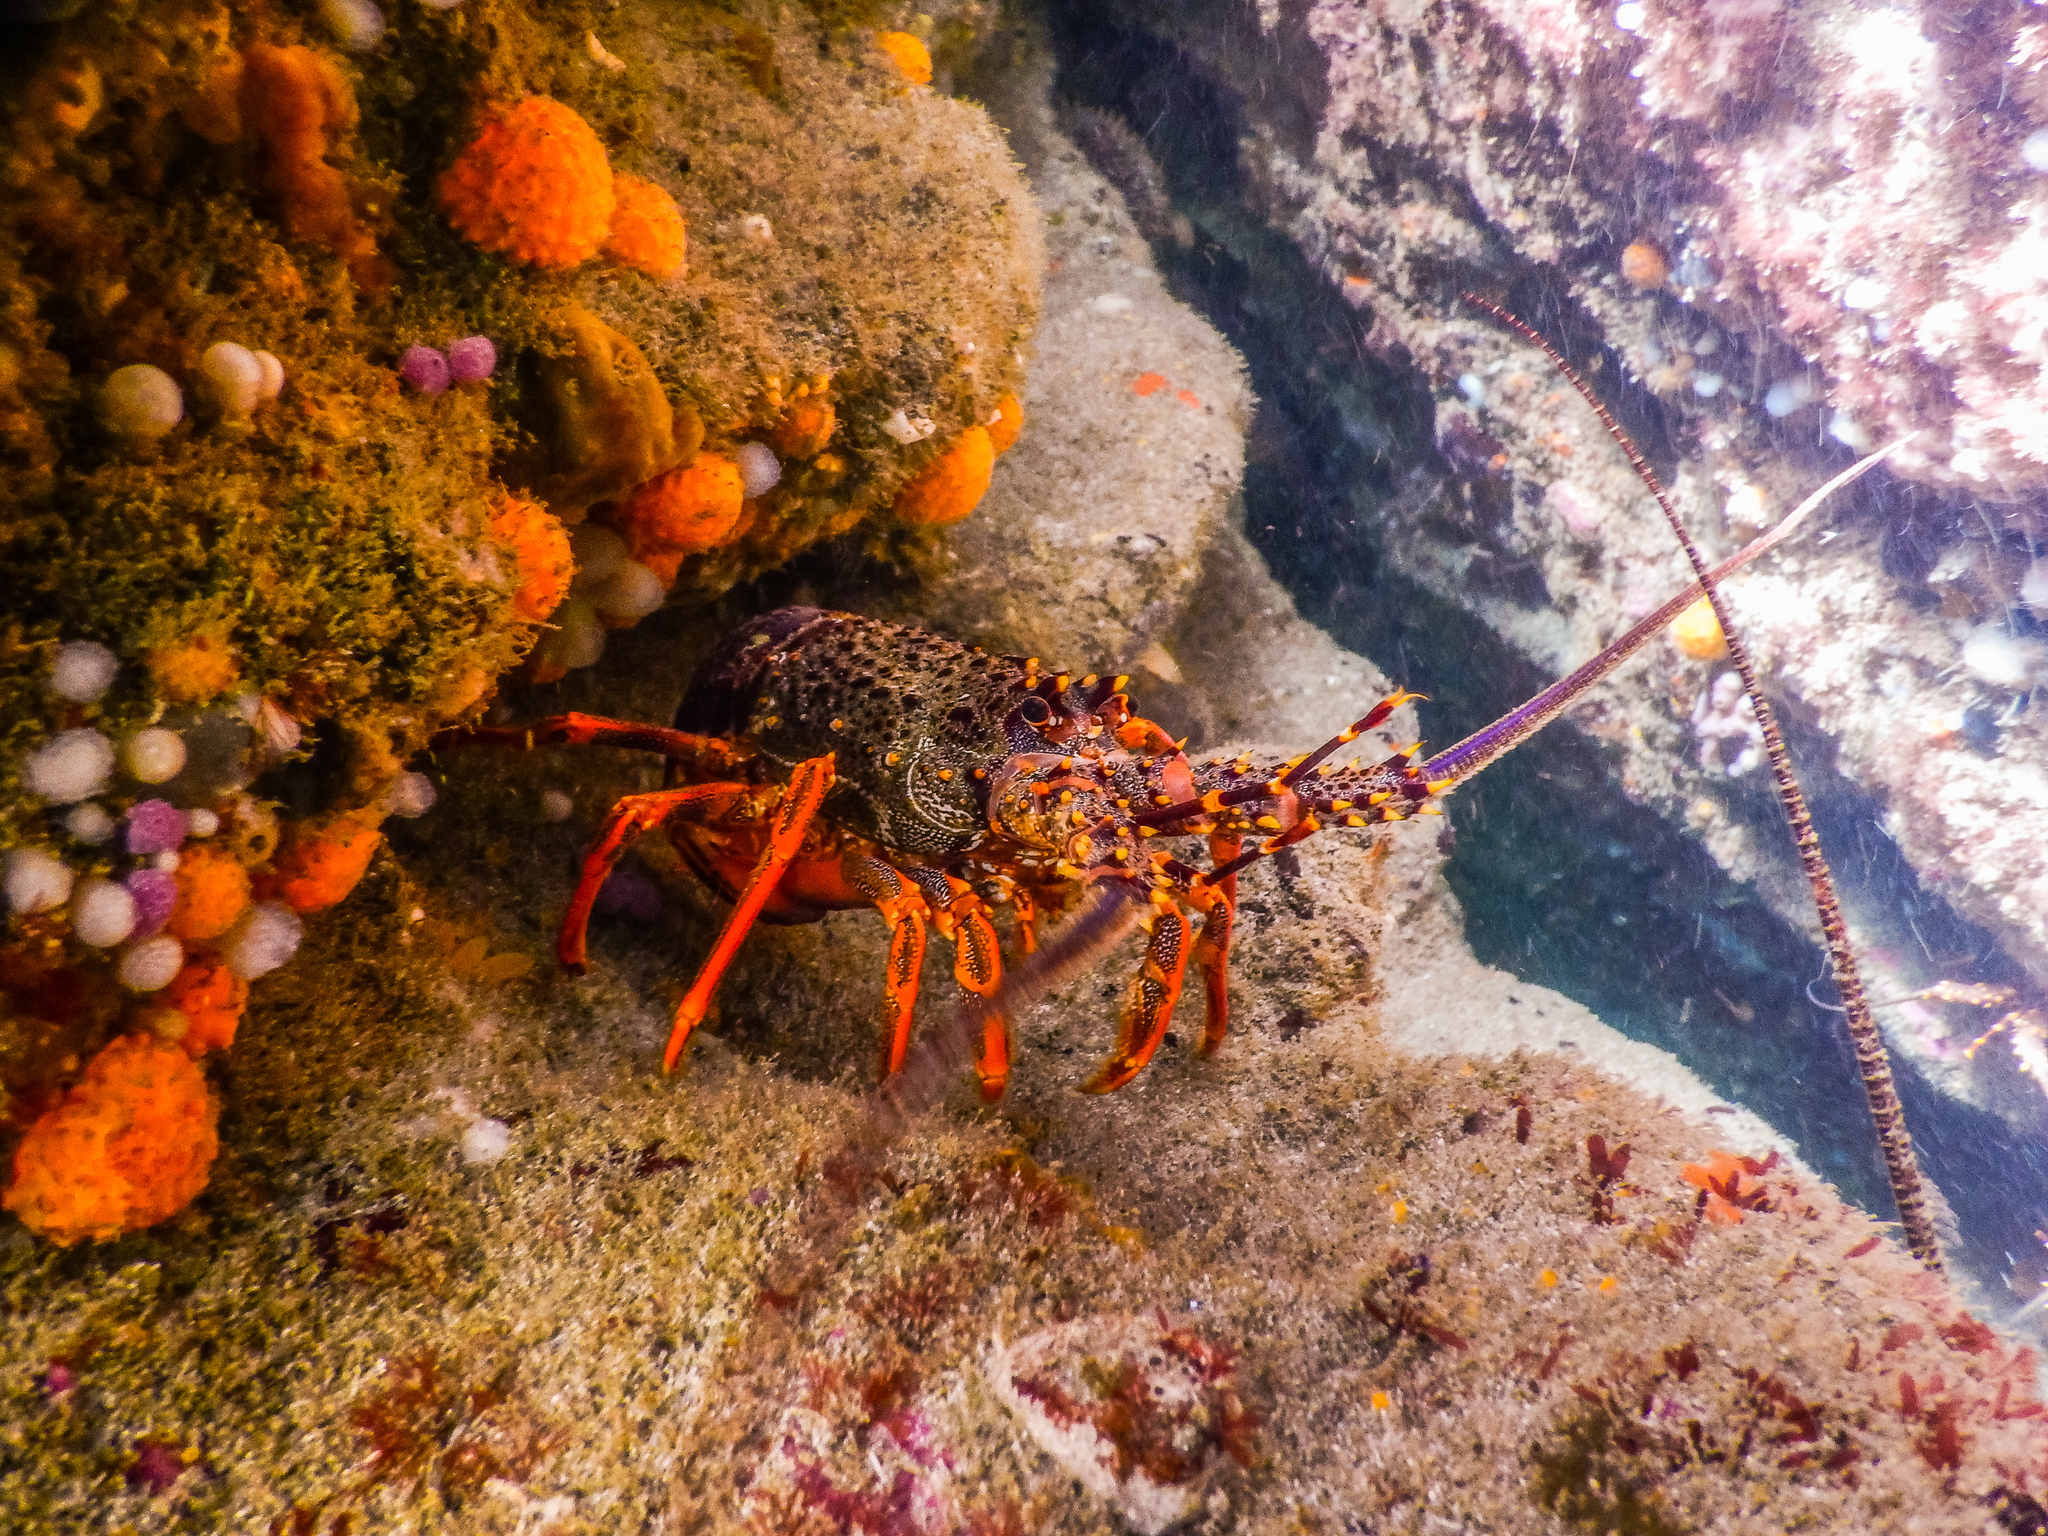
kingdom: Animalia
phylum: Arthropoda
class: Malacostraca
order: Decapoda
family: Palinuridae
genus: Jasus
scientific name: Jasus edwardsii
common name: Red rock lobster
